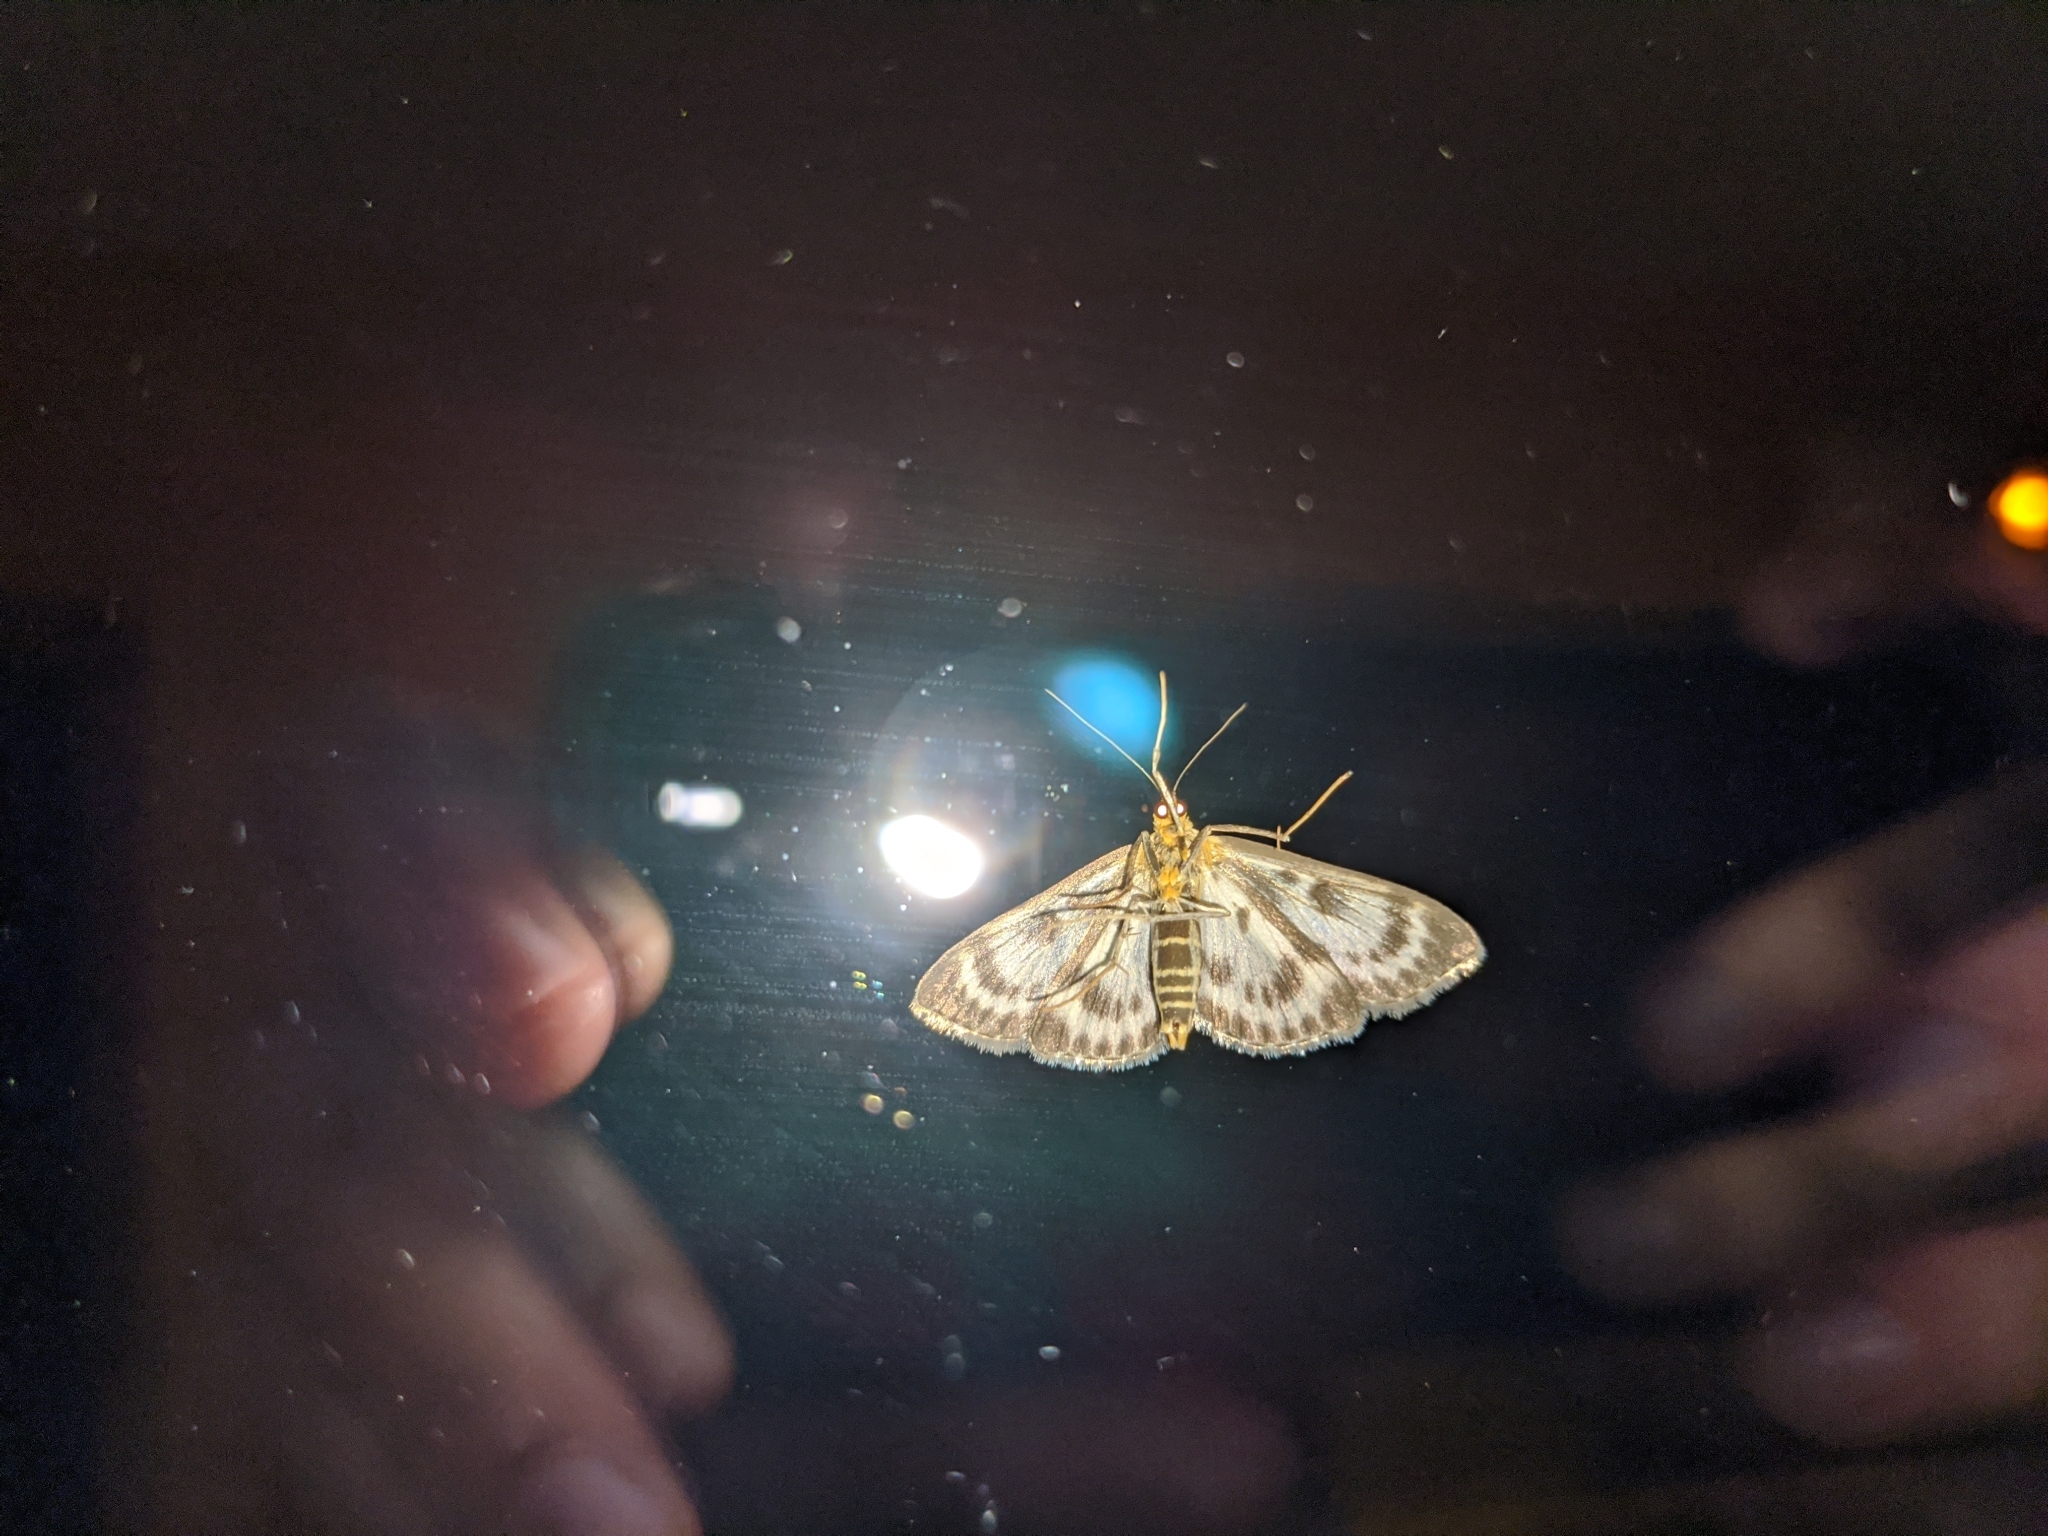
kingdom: Animalia
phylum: Arthropoda
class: Insecta
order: Lepidoptera
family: Crambidae
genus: Anania
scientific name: Anania hortulata
